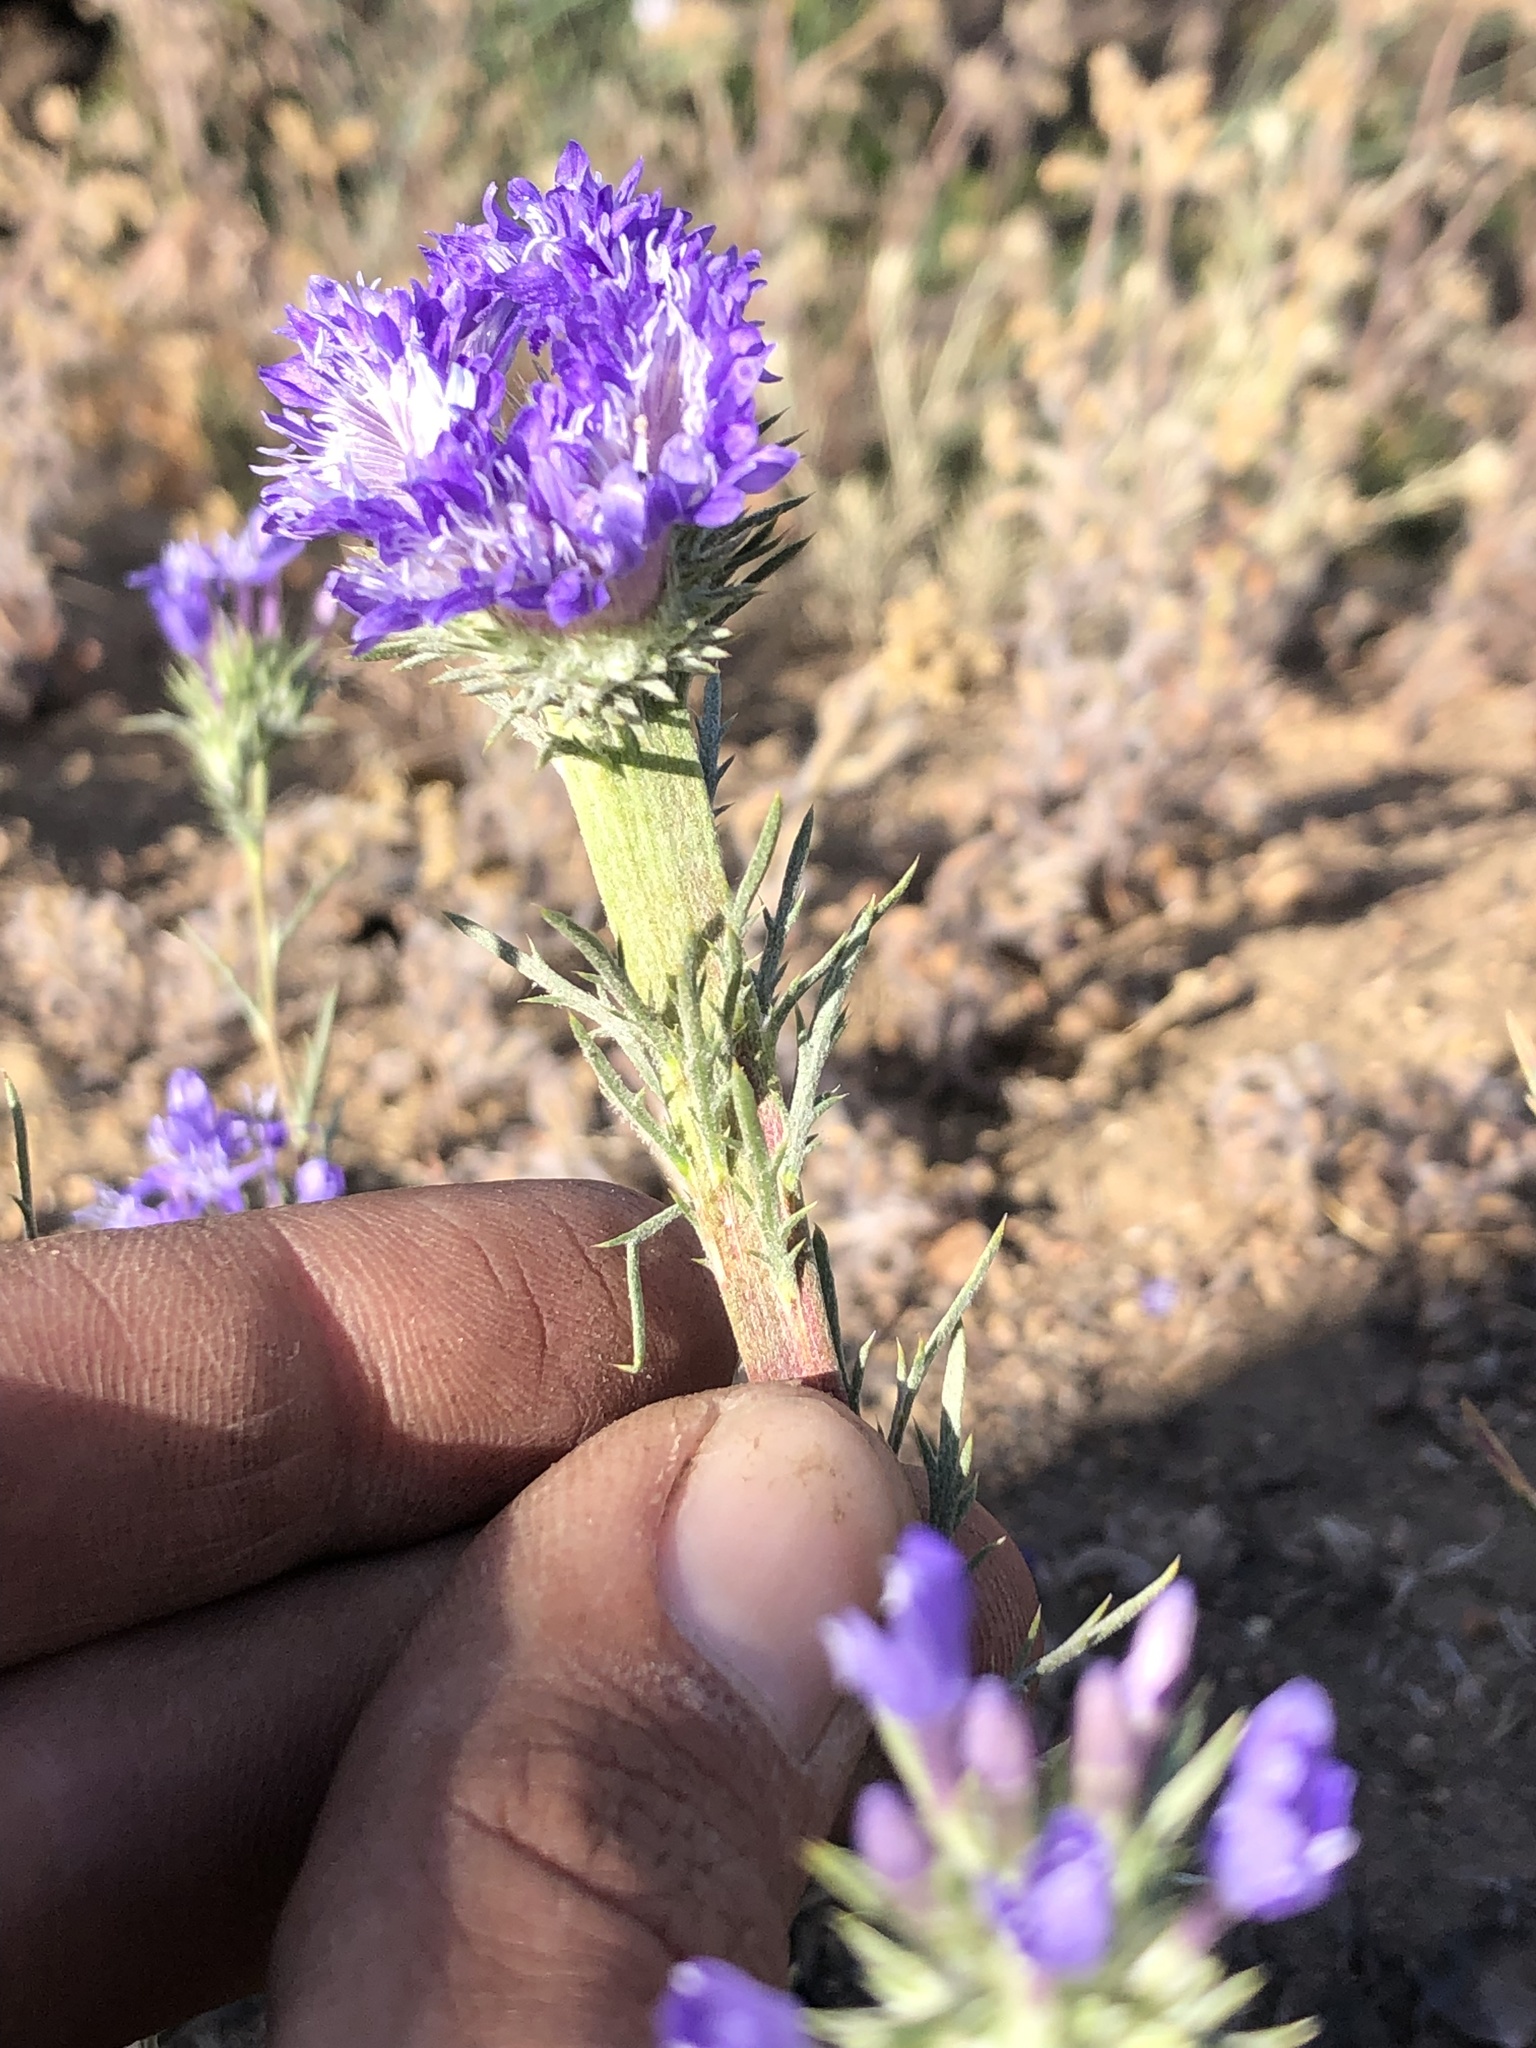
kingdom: Plantae
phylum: Tracheophyta
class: Magnoliopsida
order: Ericales
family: Polemoniaceae
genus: Eriastrum
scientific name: Eriastrum densifolium
